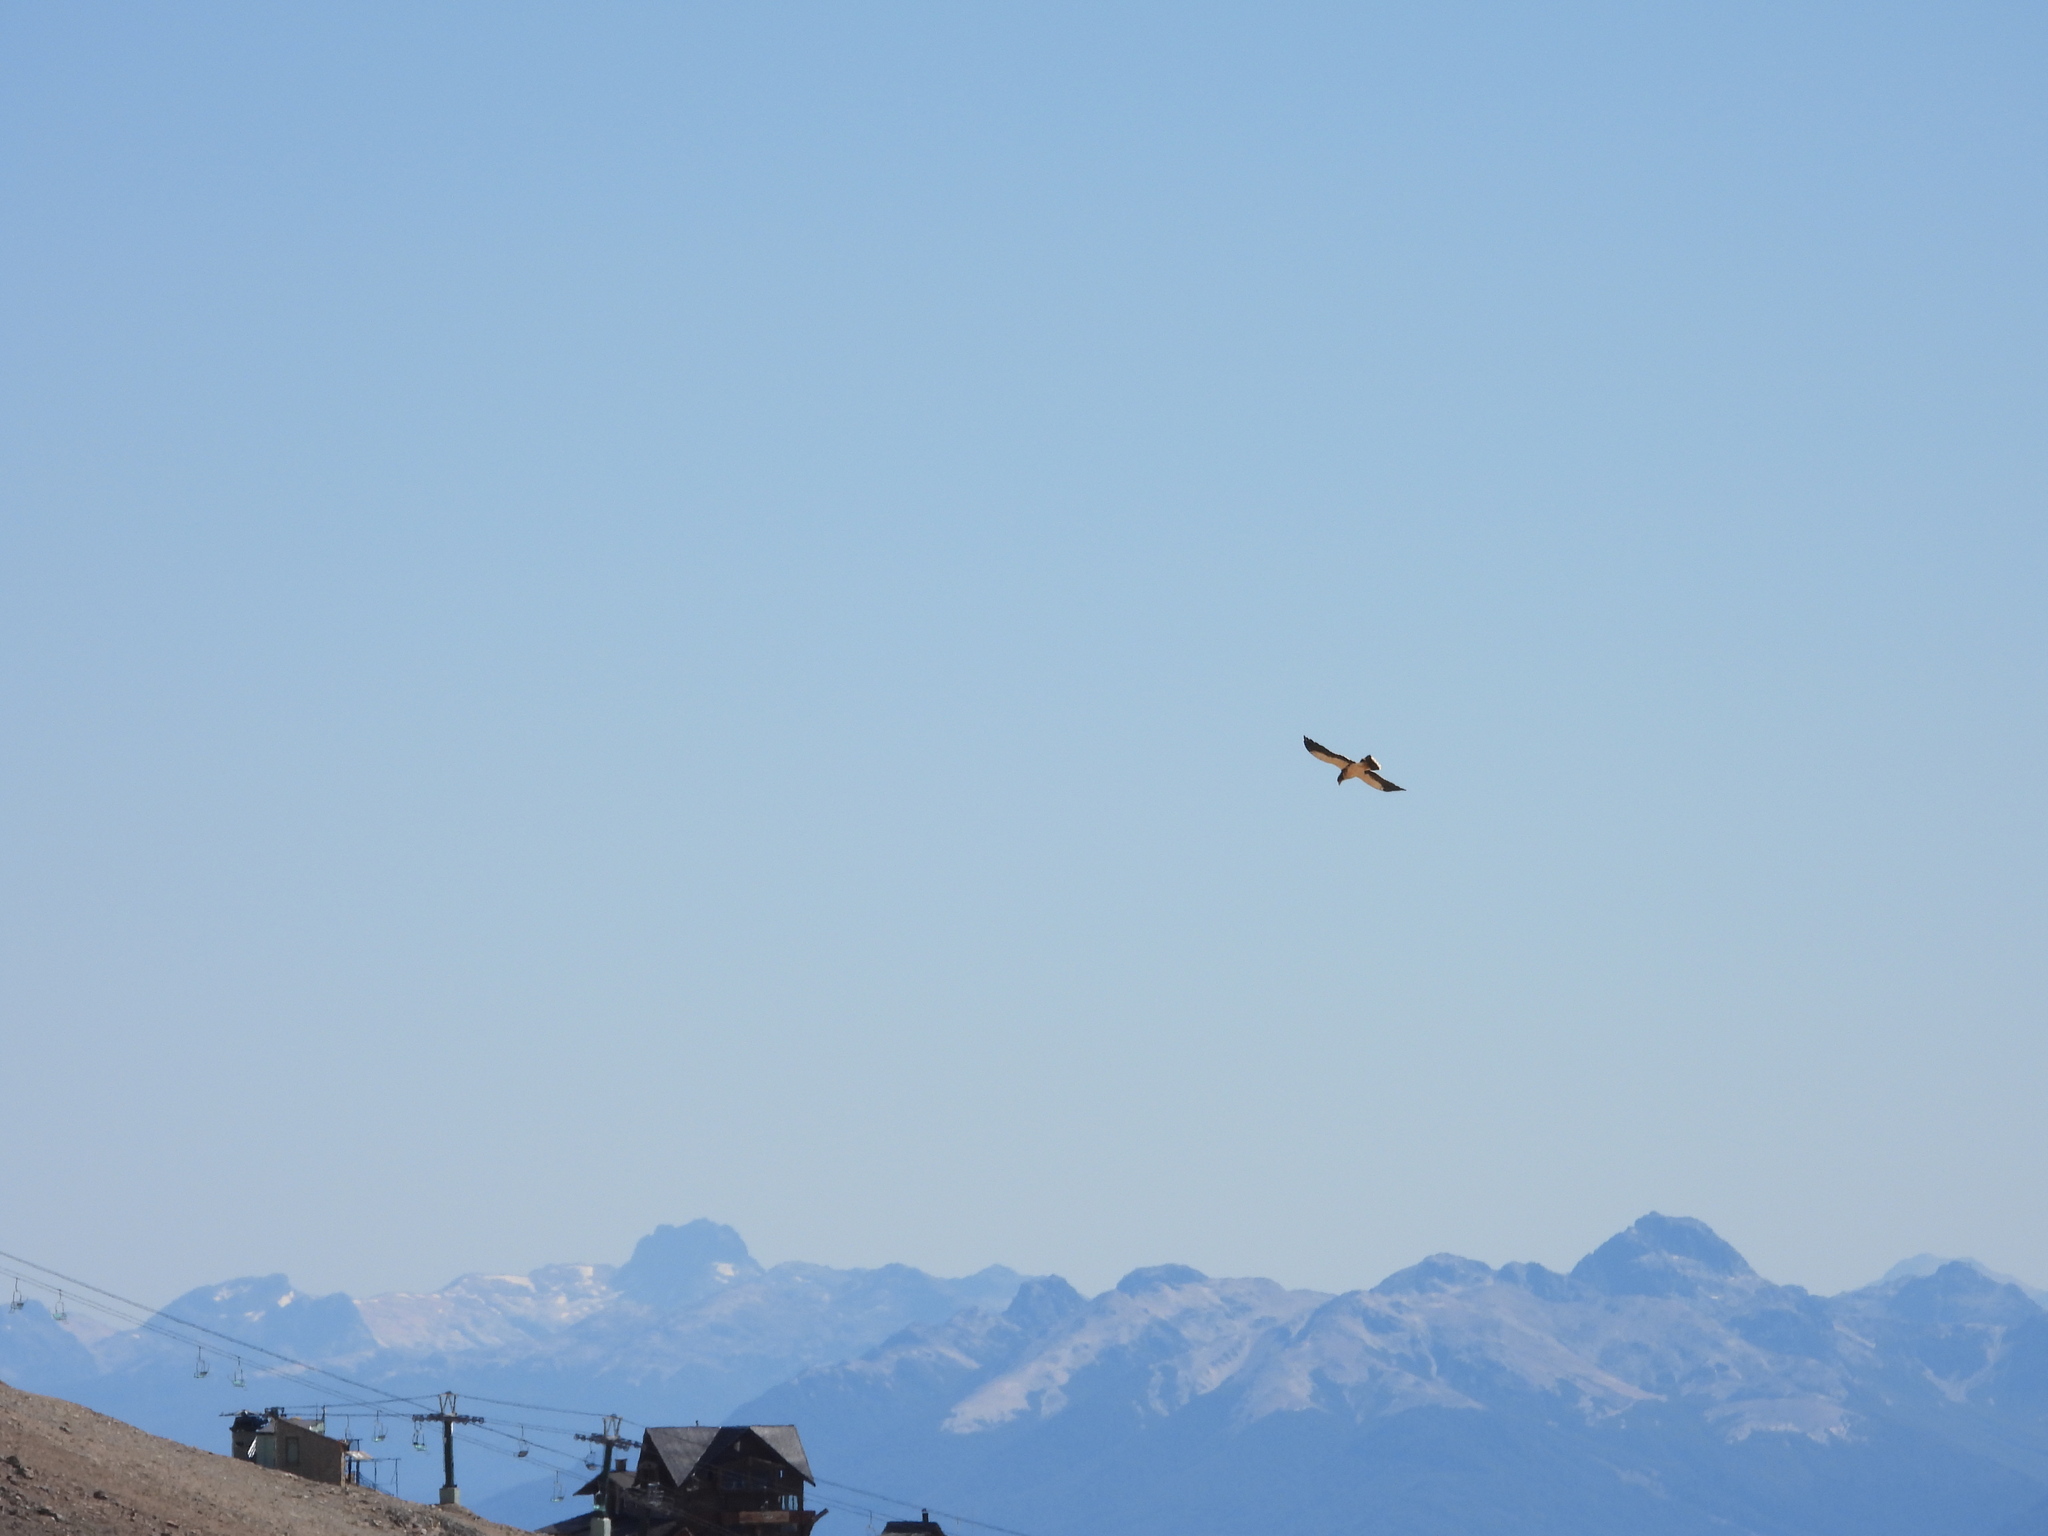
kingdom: Animalia
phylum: Chordata
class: Aves
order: Falconiformes
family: Falconidae
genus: Daptrius
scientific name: Daptrius
